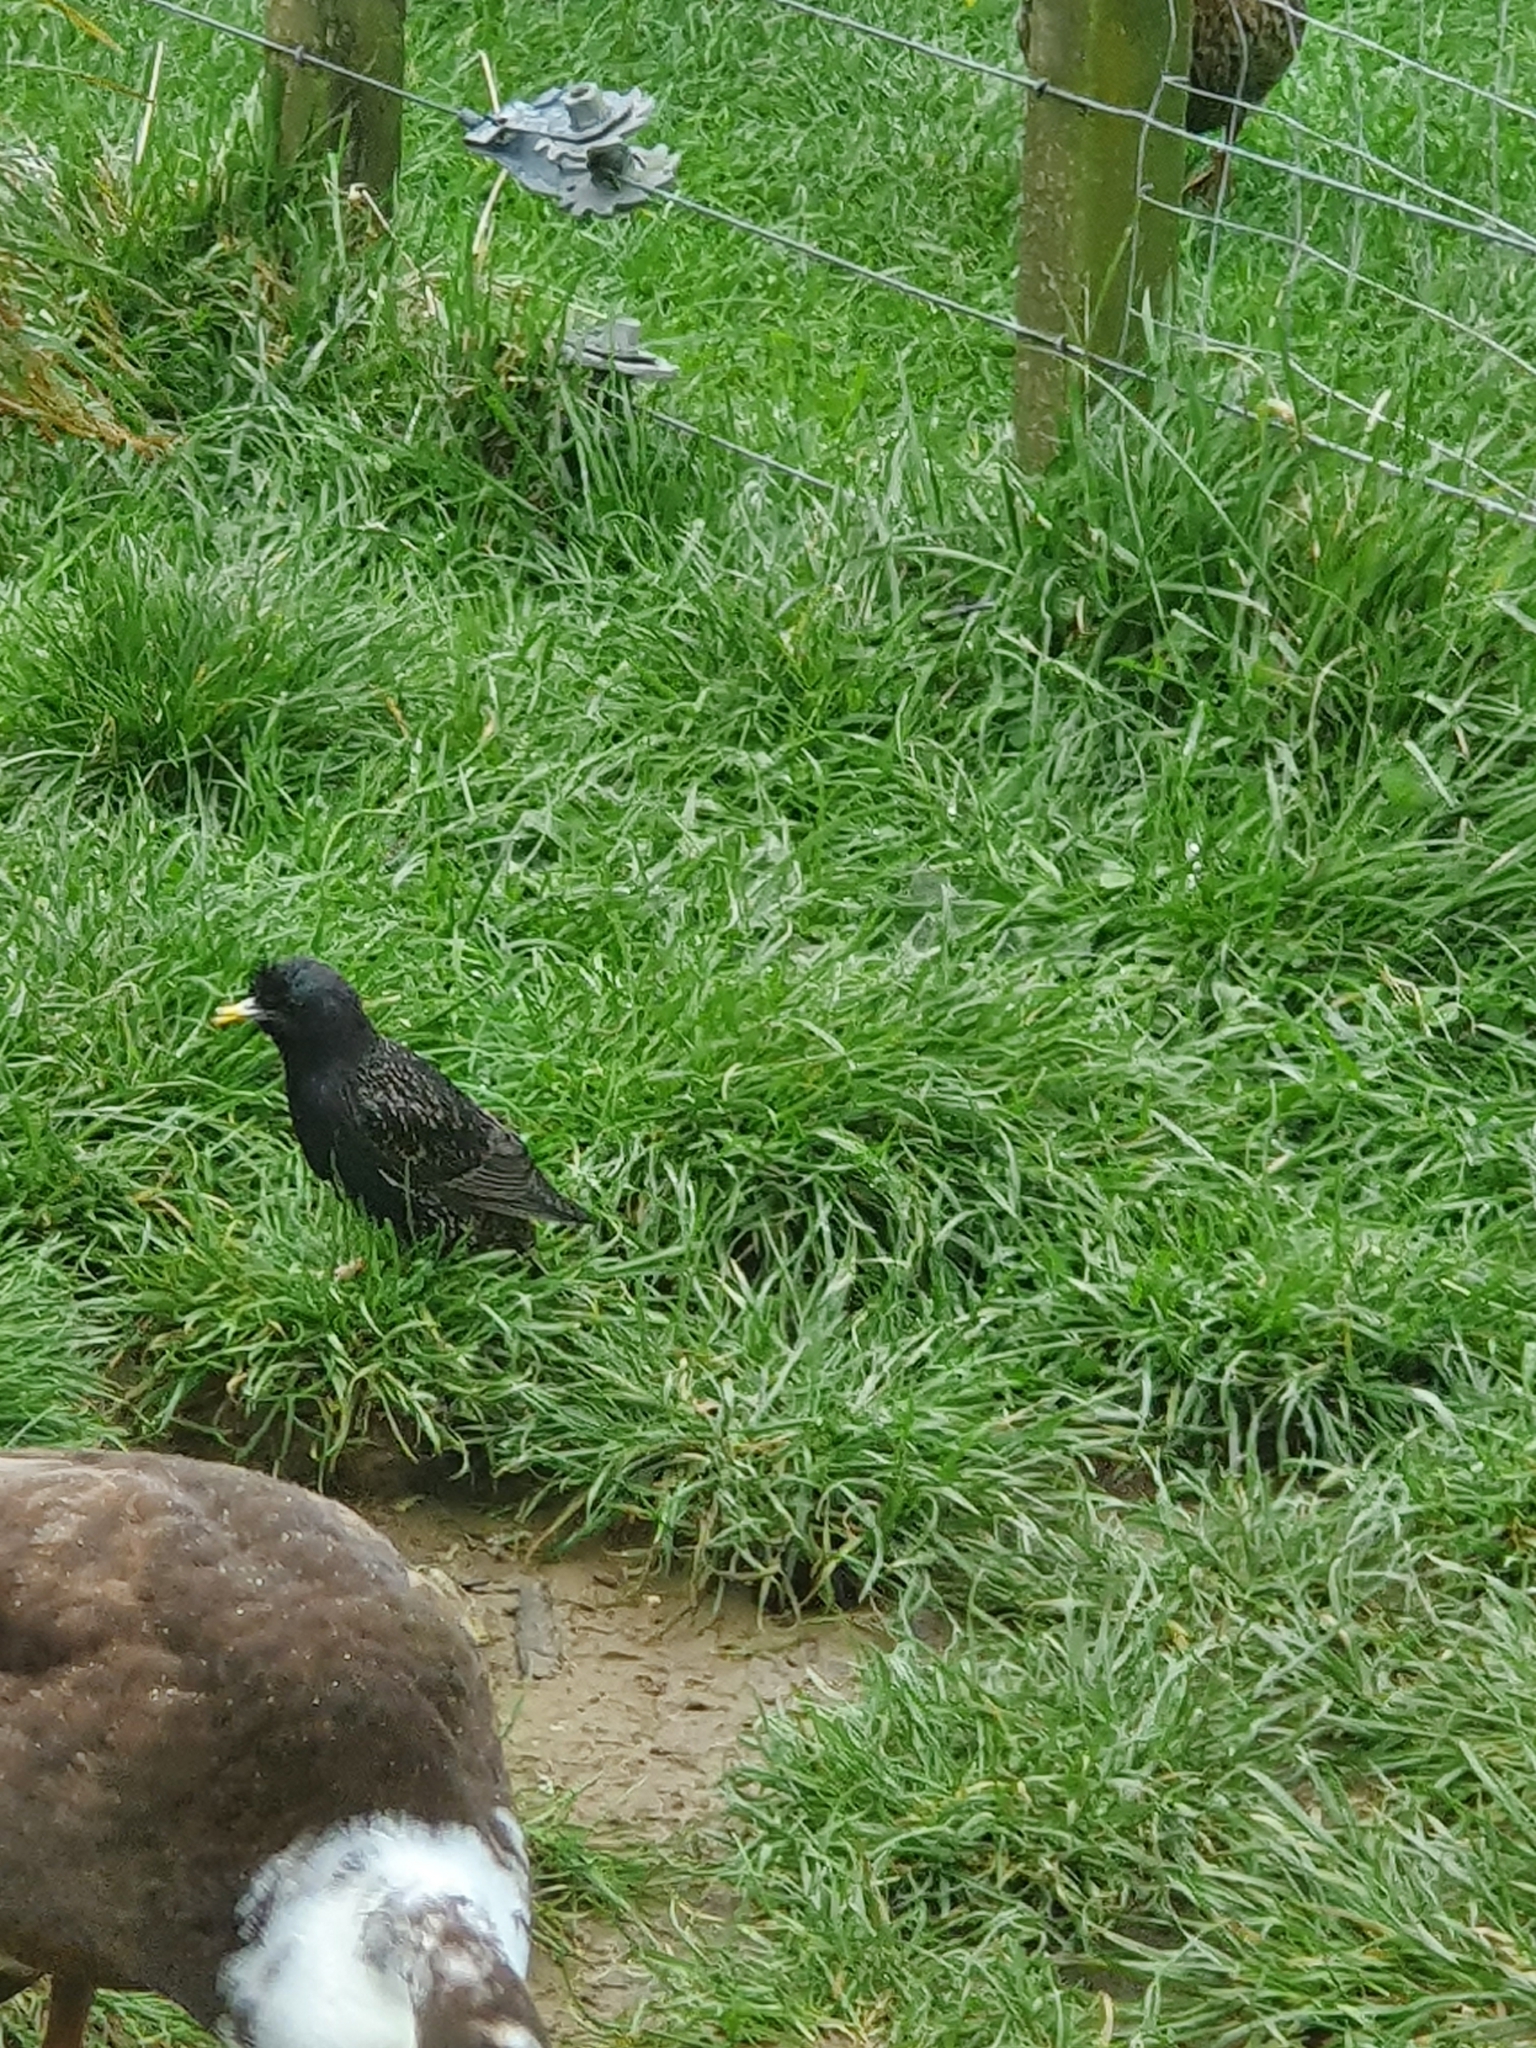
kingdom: Animalia
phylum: Chordata
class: Aves
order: Passeriformes
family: Sturnidae
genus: Sturnus
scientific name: Sturnus vulgaris
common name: Common starling
